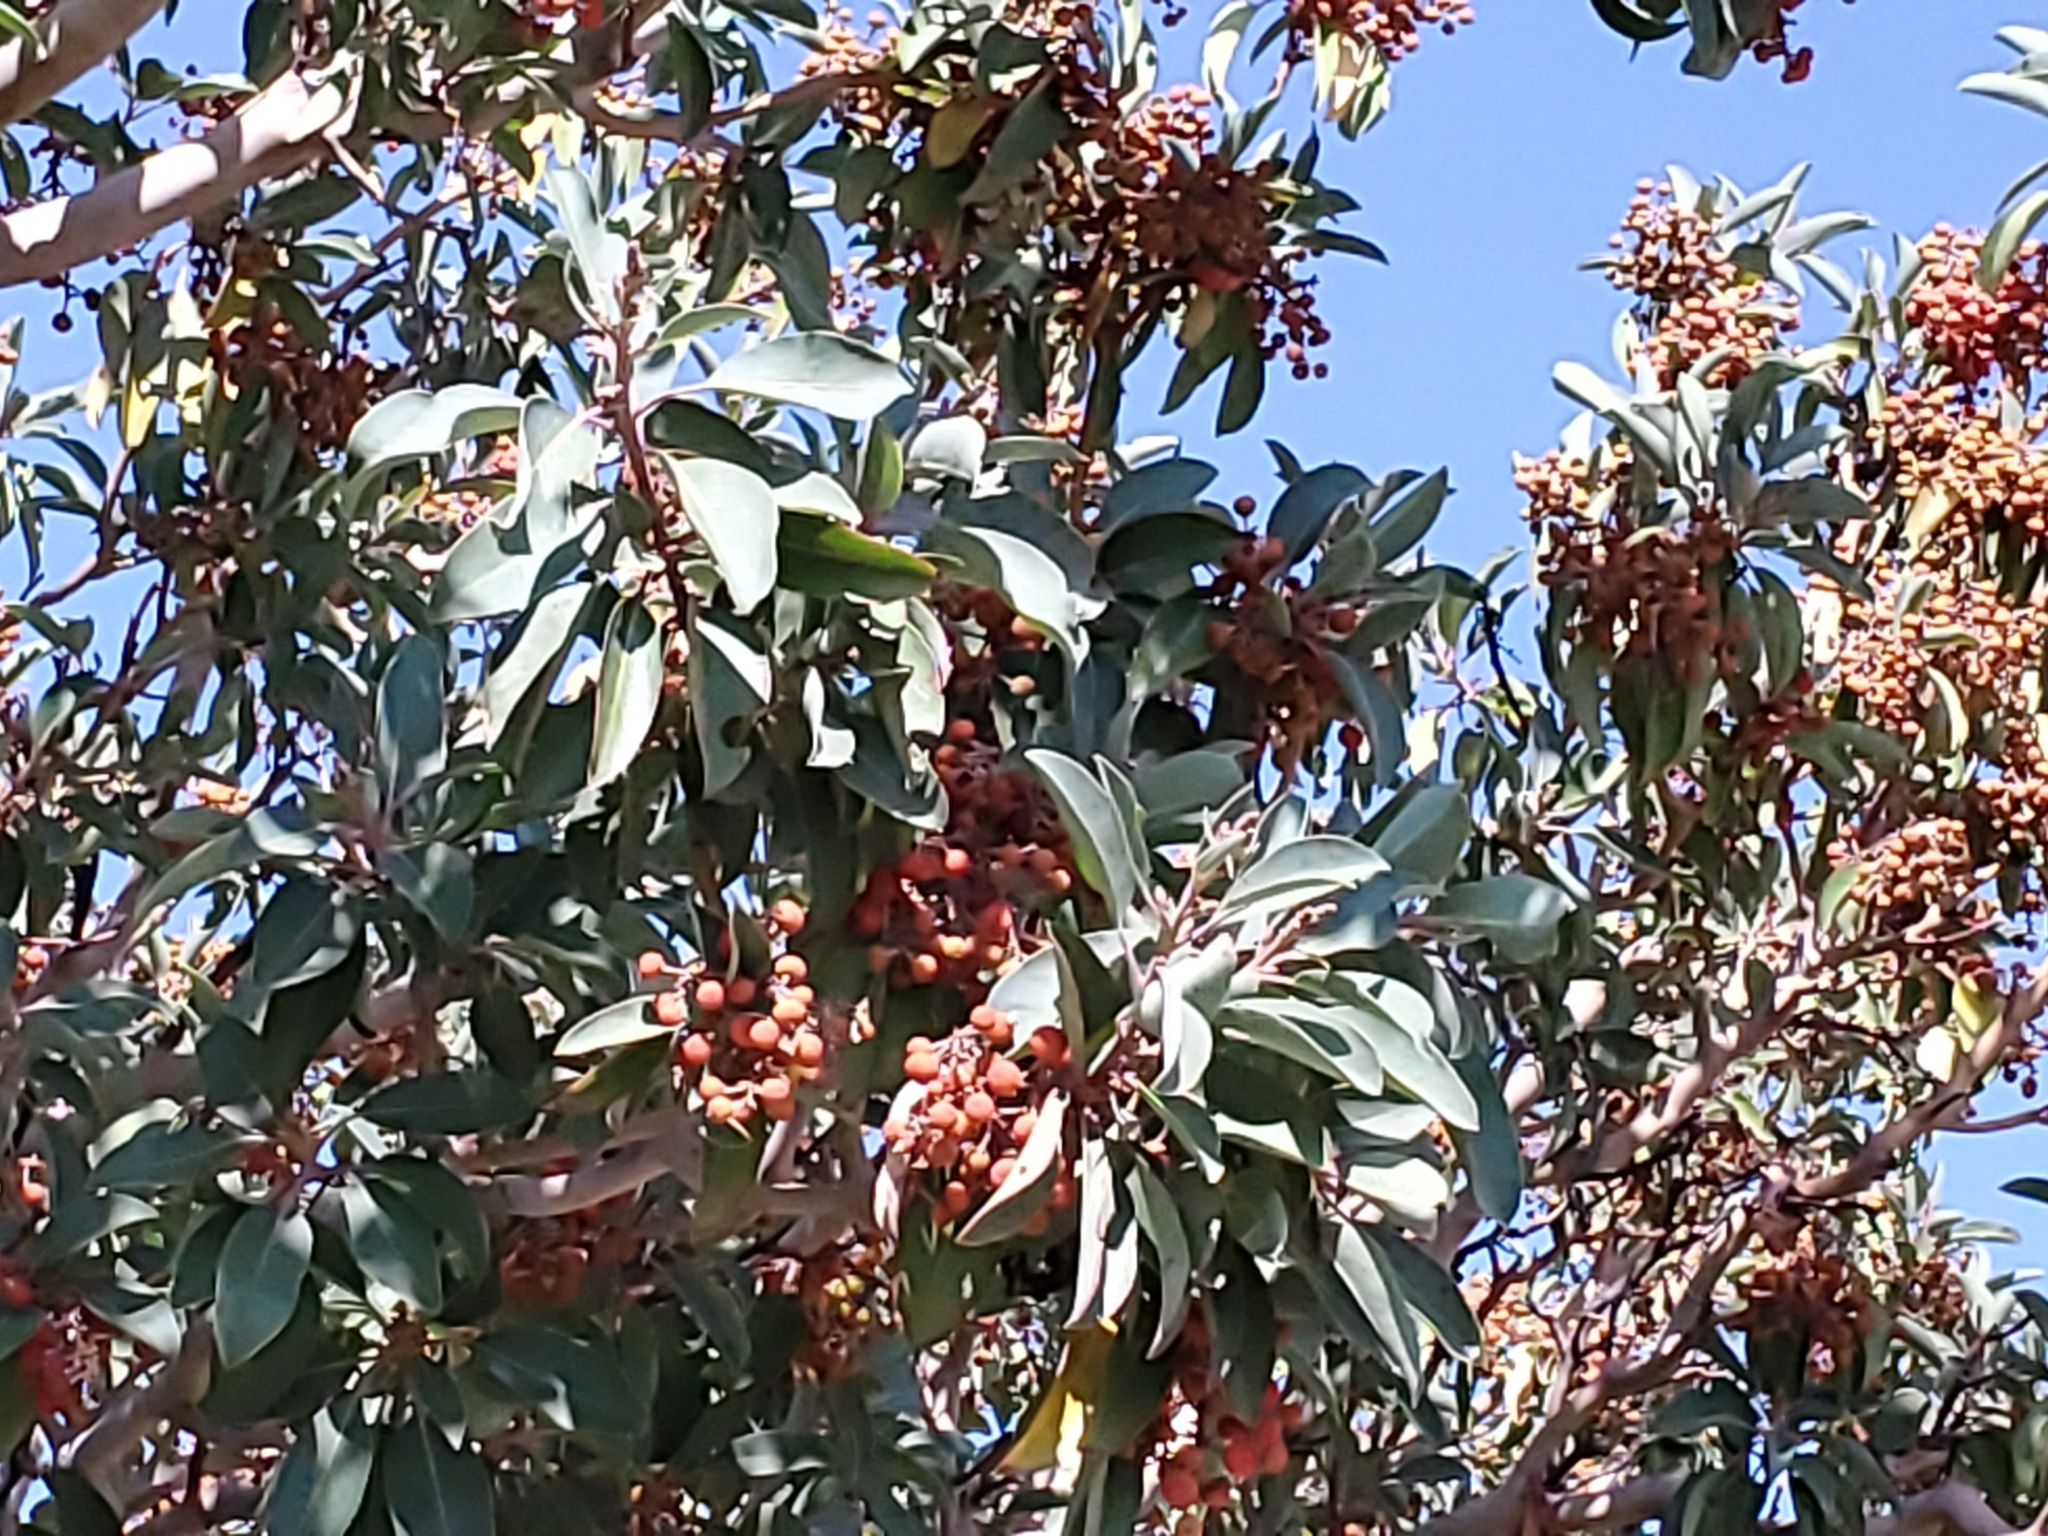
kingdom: Plantae
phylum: Tracheophyta
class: Magnoliopsida
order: Ericales
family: Ericaceae
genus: Arbutus
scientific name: Arbutus xalapensis
